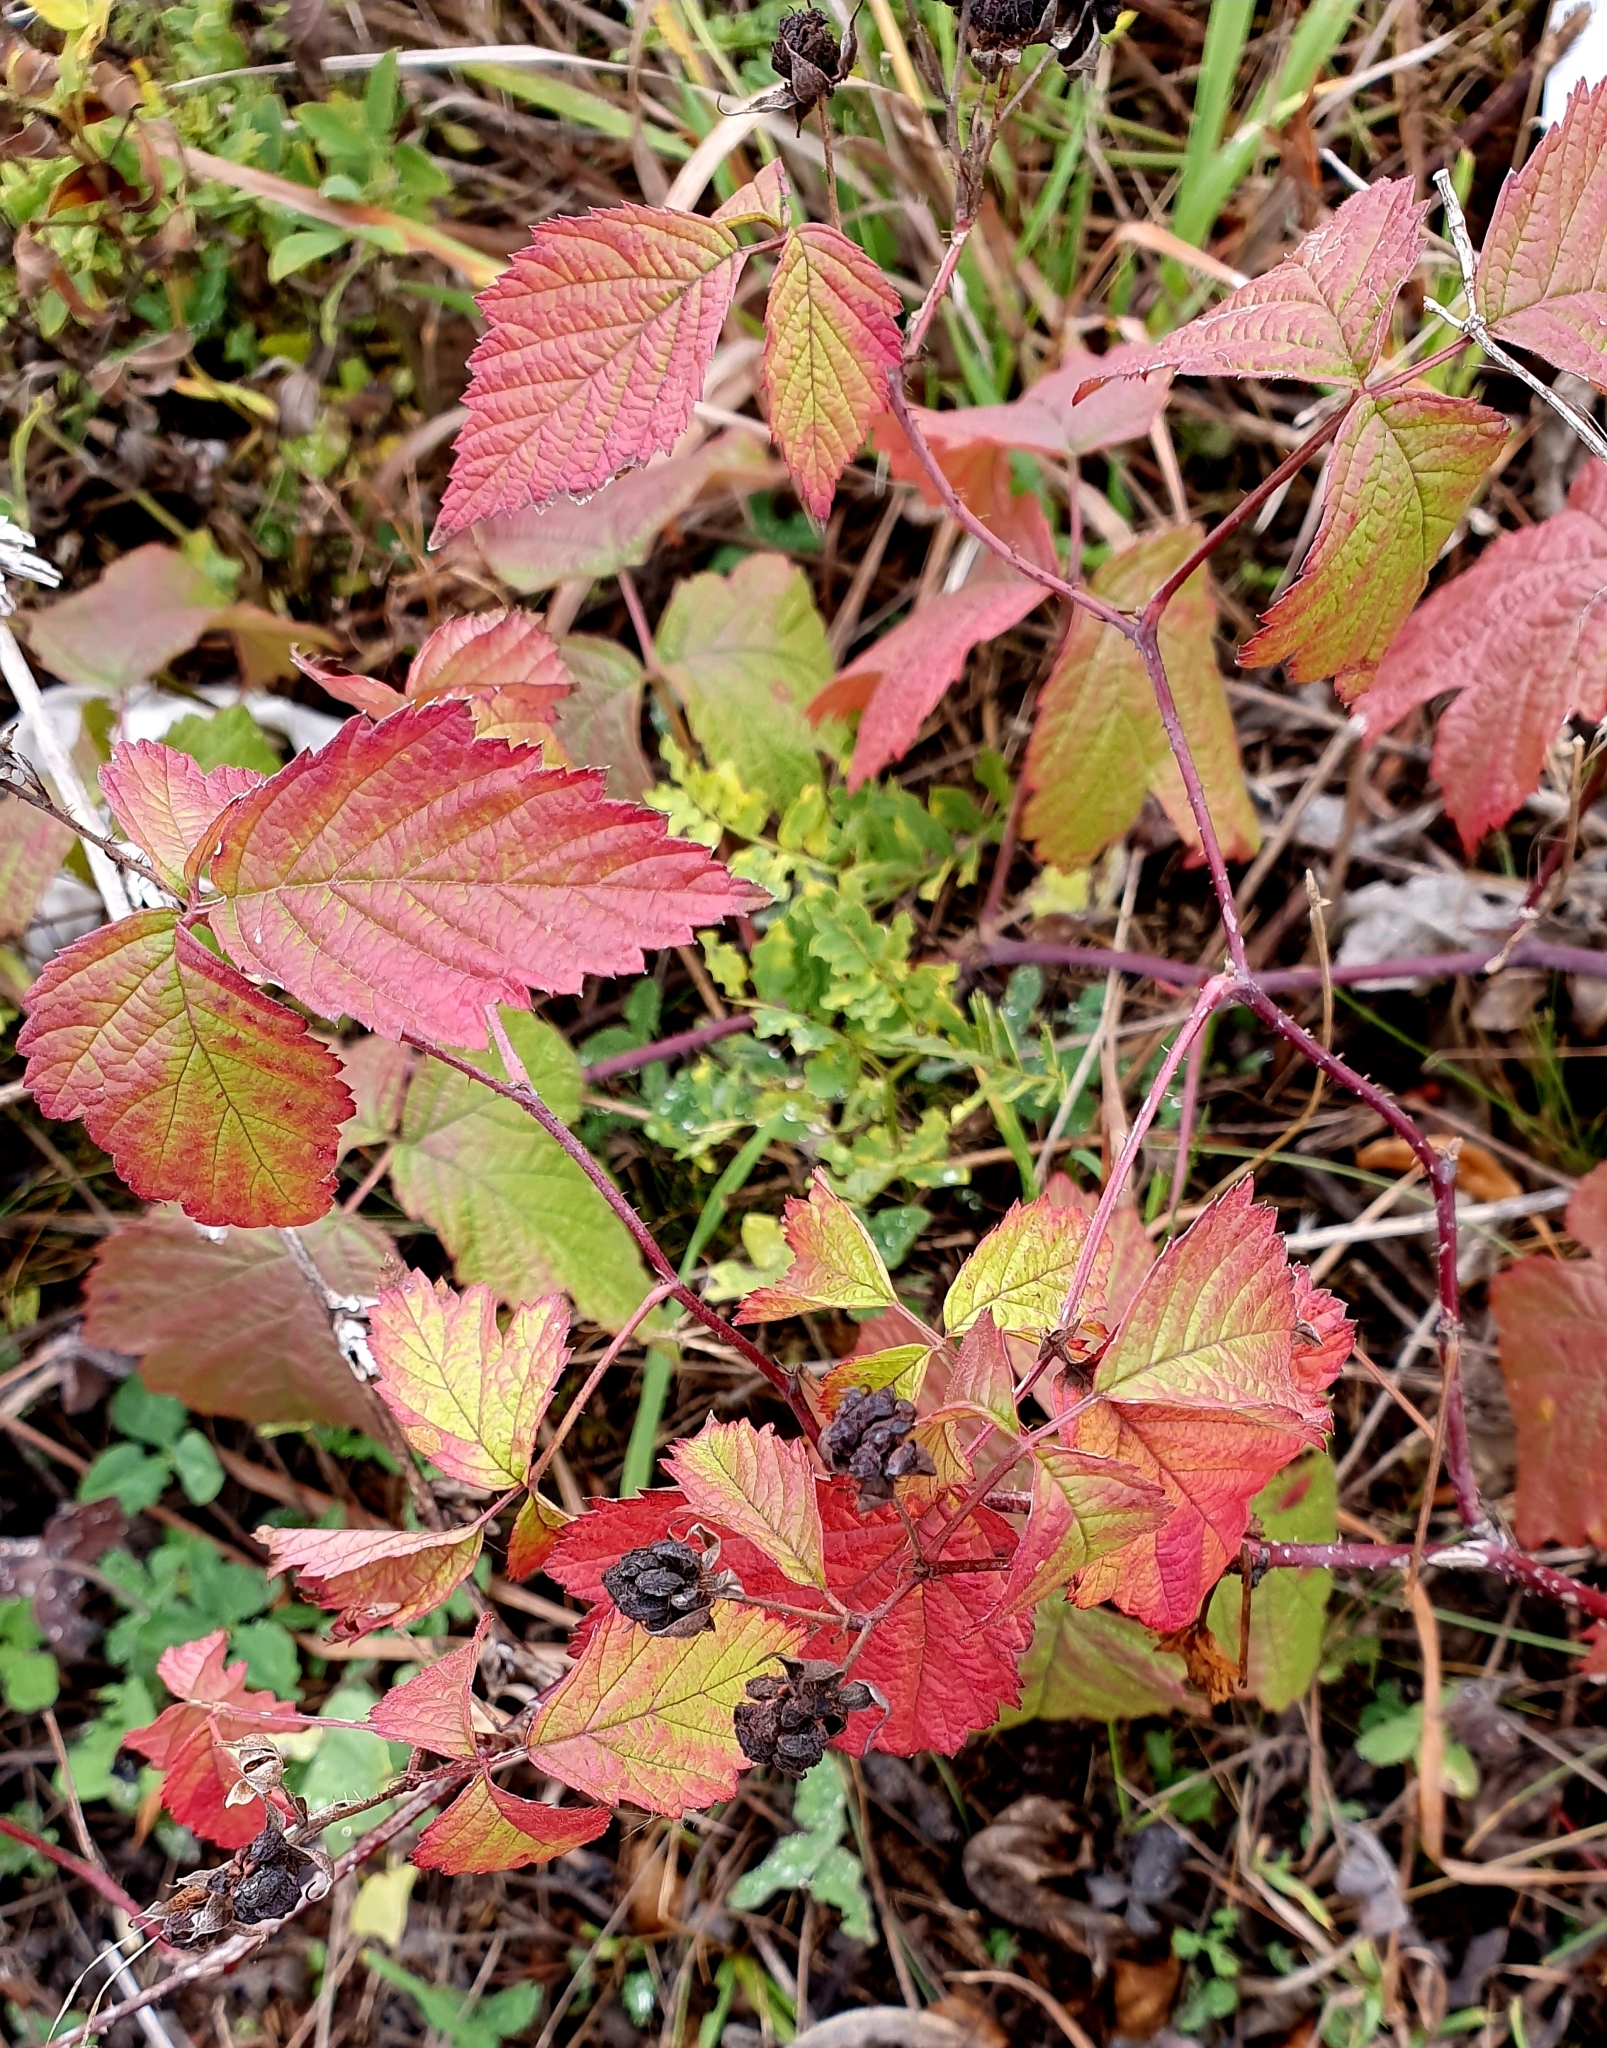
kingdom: Plantae
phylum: Tracheophyta
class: Magnoliopsida
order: Rosales
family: Rosaceae
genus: Rubus
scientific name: Rubus caesius
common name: Dewberry
